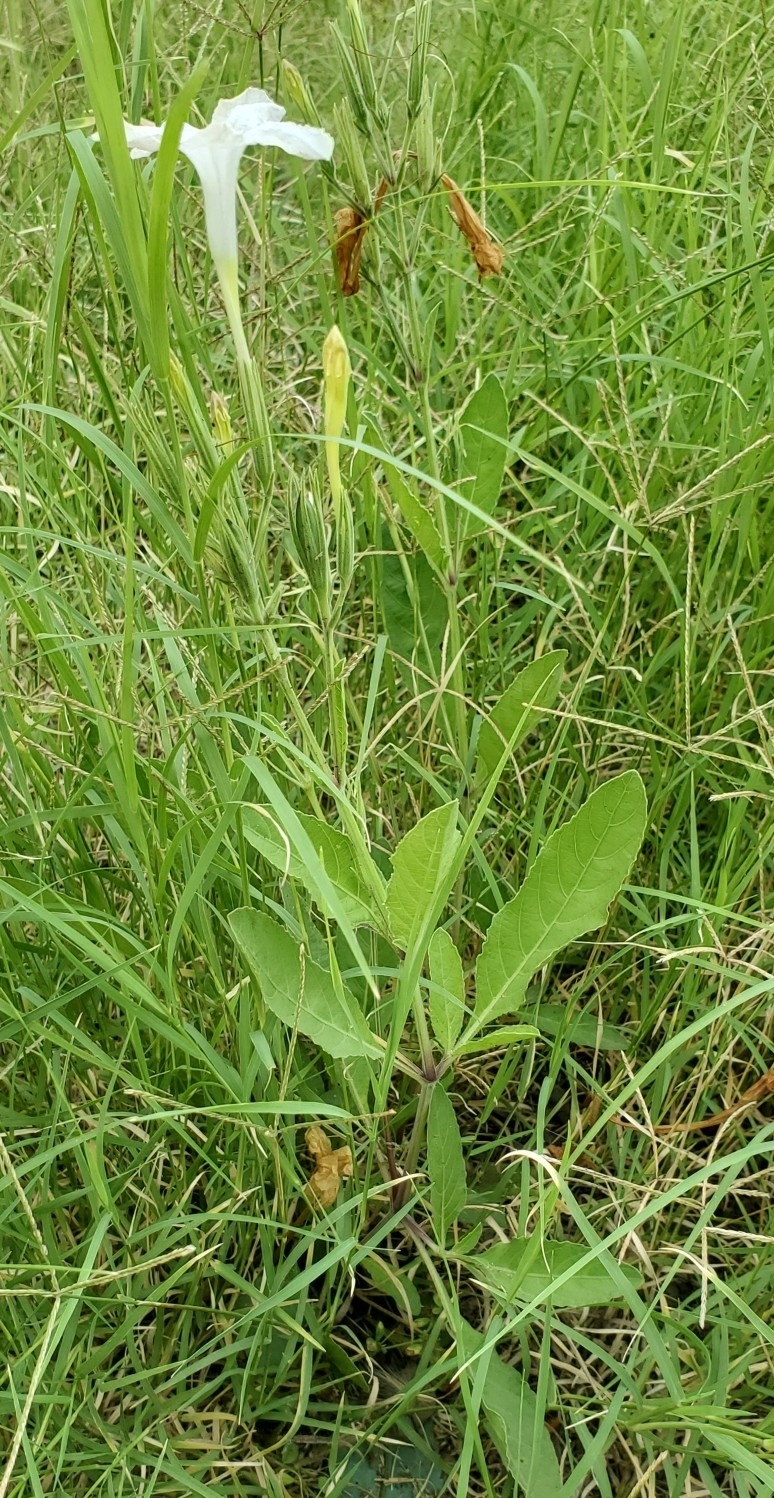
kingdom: Plantae
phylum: Tracheophyta
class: Magnoliopsida
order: Lamiales
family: Acanthaceae
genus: Ruellia
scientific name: Ruellia metziae
